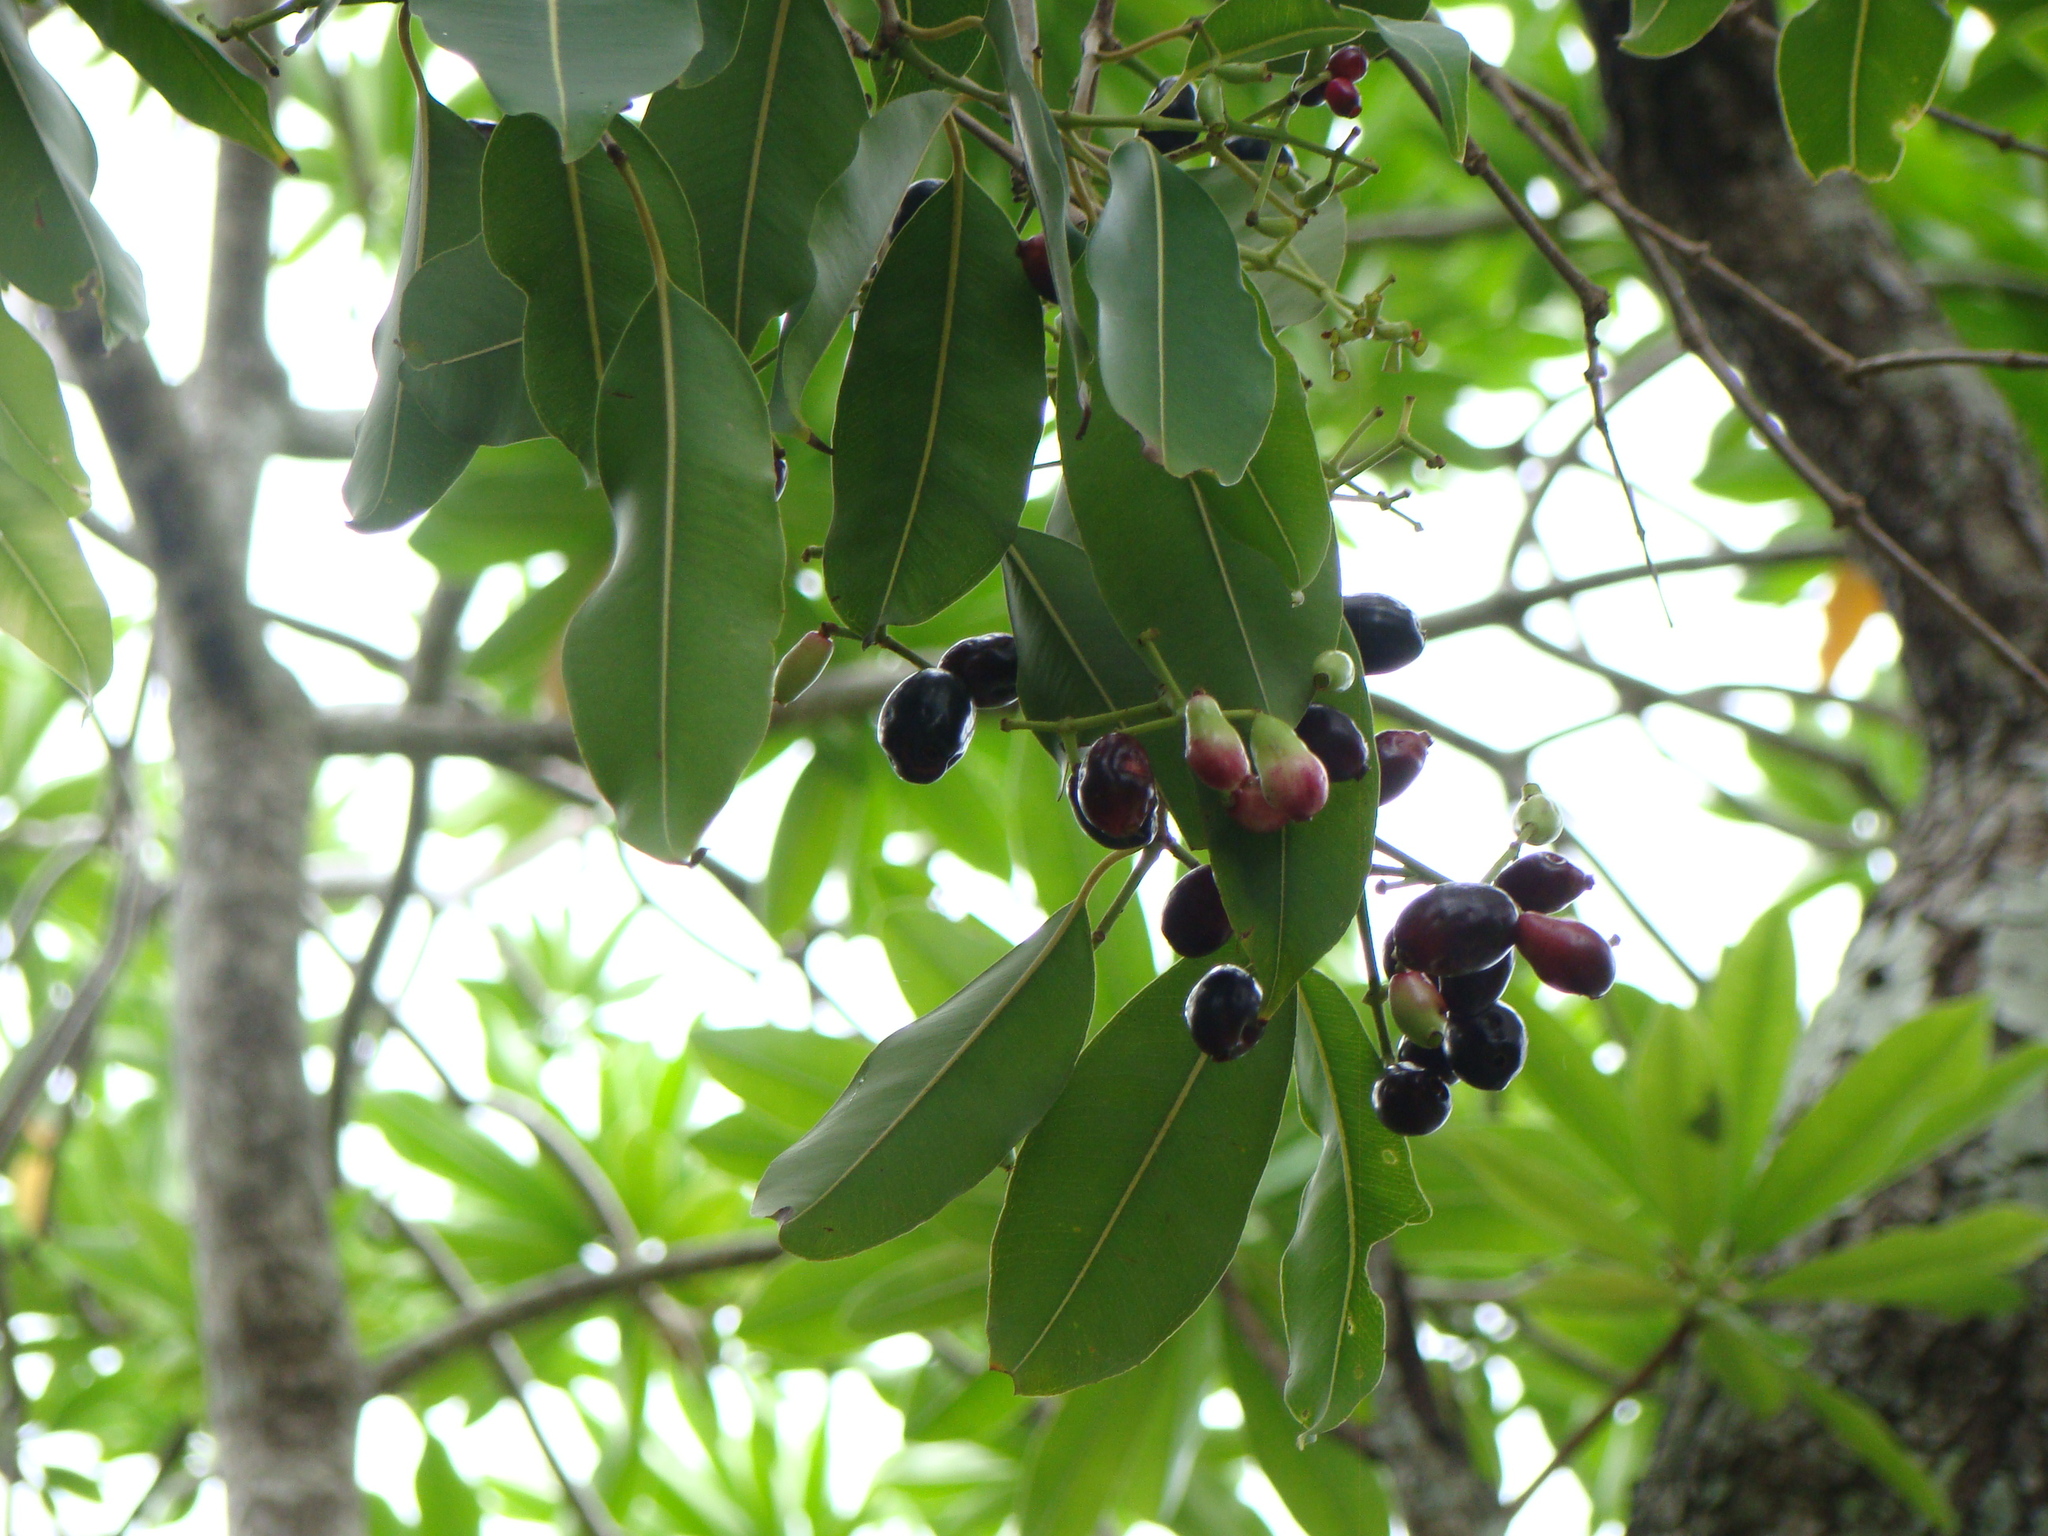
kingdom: Plantae
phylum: Tracheophyta
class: Magnoliopsida
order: Myrtales
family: Myrtaceae
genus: Syzygium
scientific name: Syzygium cumini
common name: Java plum
